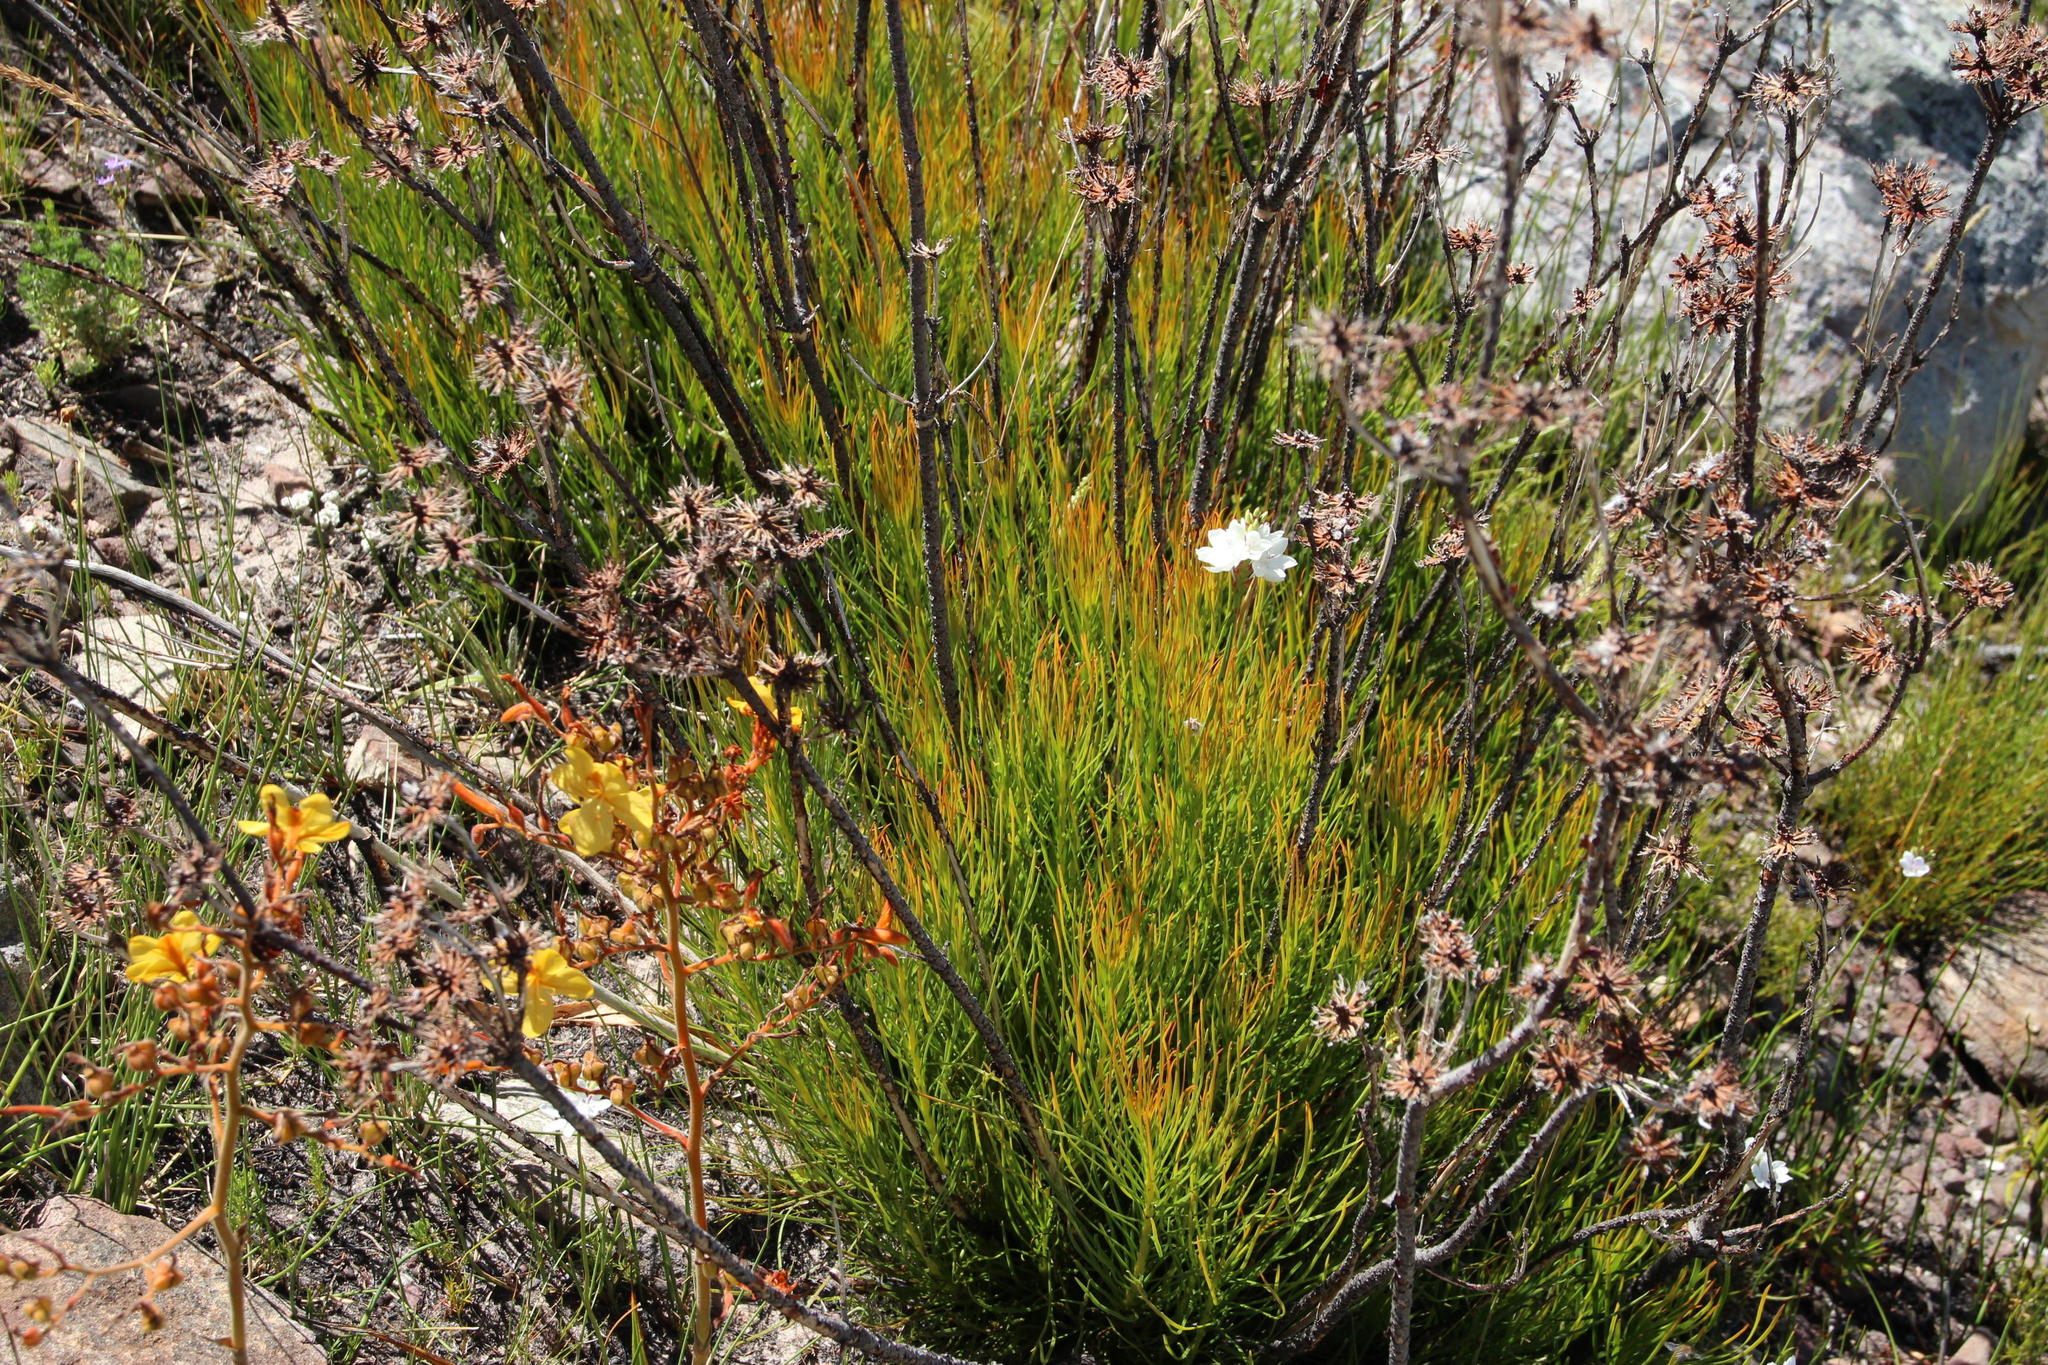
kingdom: Plantae
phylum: Tracheophyta
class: Magnoliopsida
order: Proteales
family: Proteaceae
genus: Aulax
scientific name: Aulax pallasia
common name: Needle-leaf featherbush
